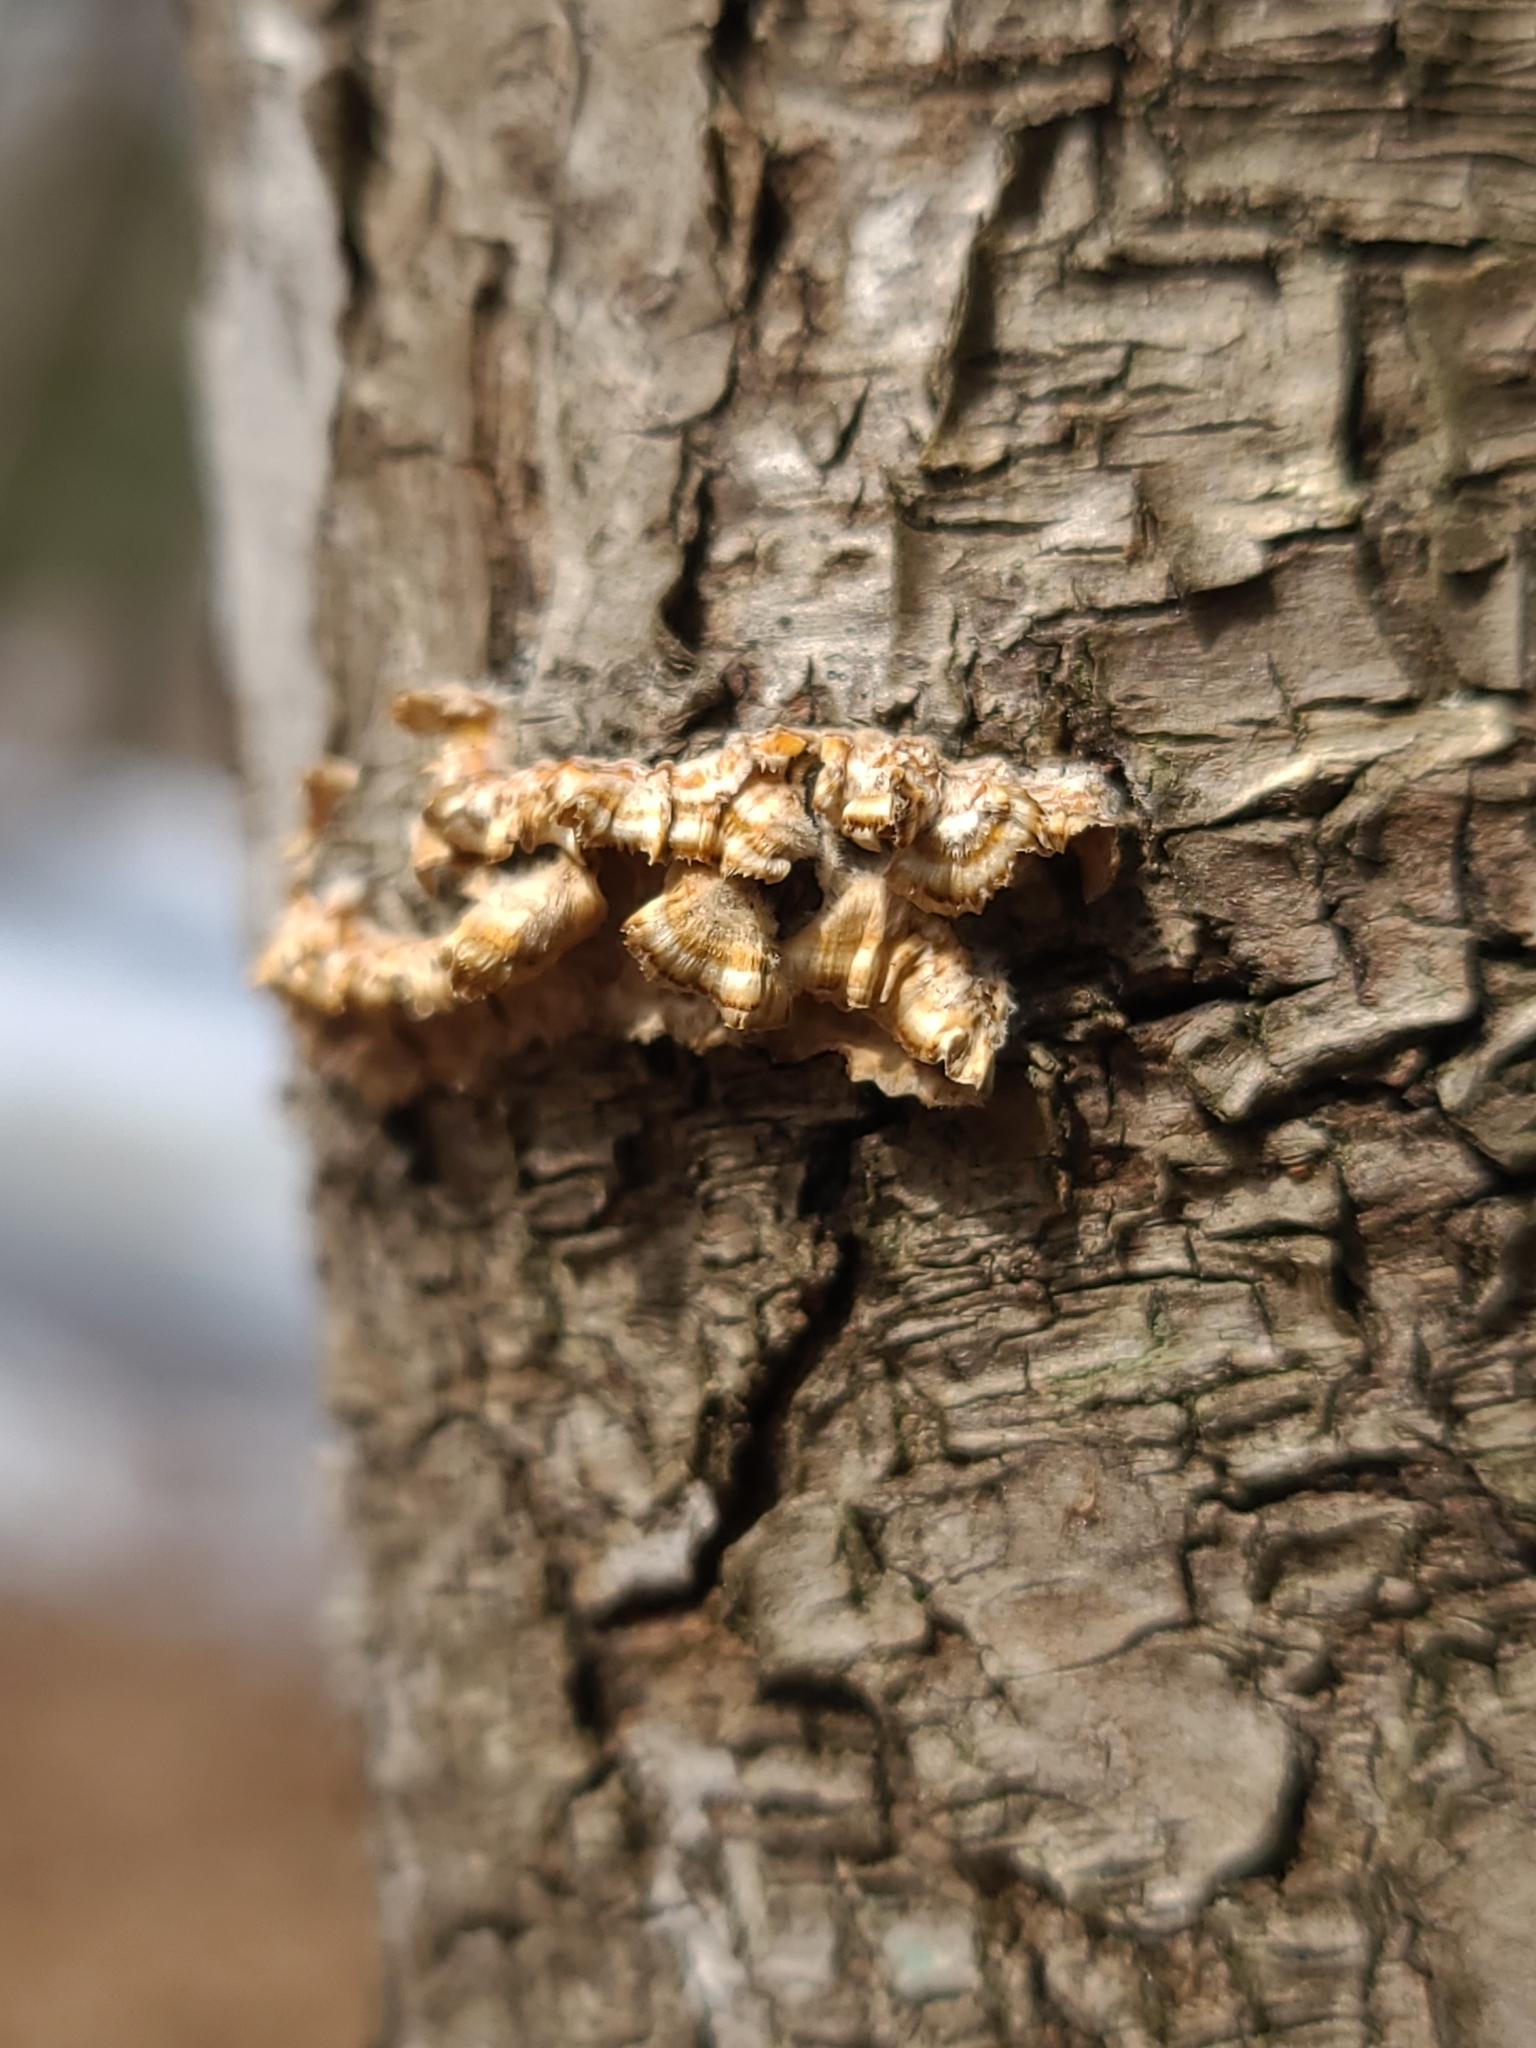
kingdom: Fungi
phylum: Basidiomycota
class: Agaricomycetes
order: Russulales
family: Stereaceae
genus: Stereum
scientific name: Stereum complicatum
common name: Crowded parchment
